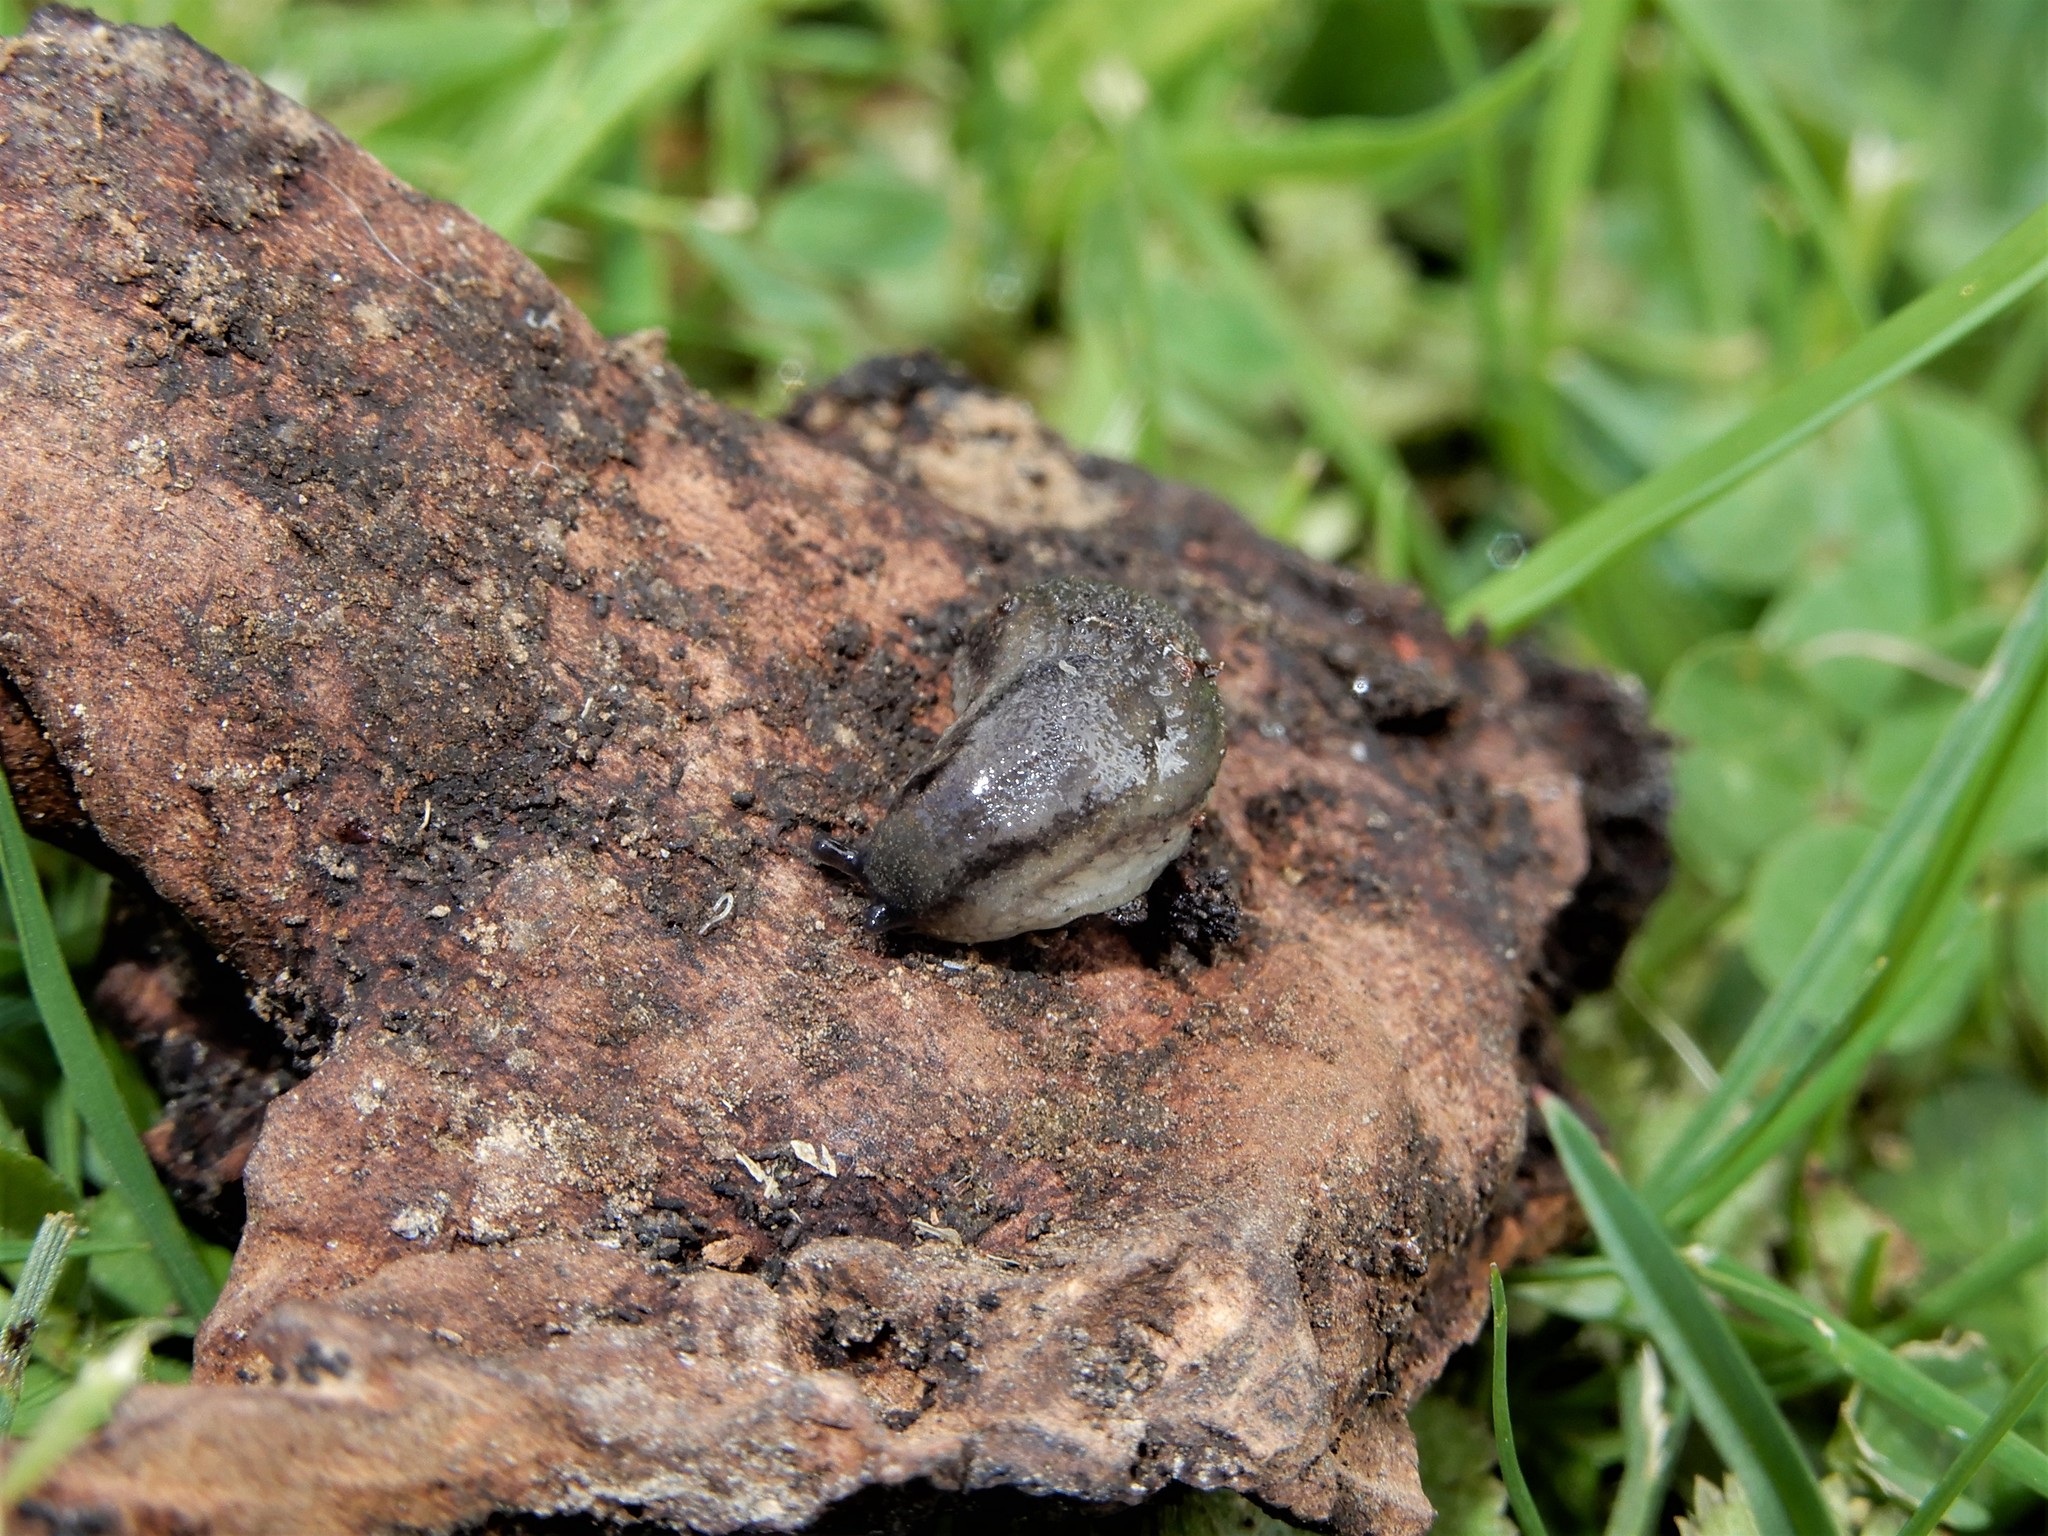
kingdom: Animalia
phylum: Mollusca
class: Gastropoda
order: Stylommatophora
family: Arionidae
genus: Kobeltia
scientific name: Kobeltia
